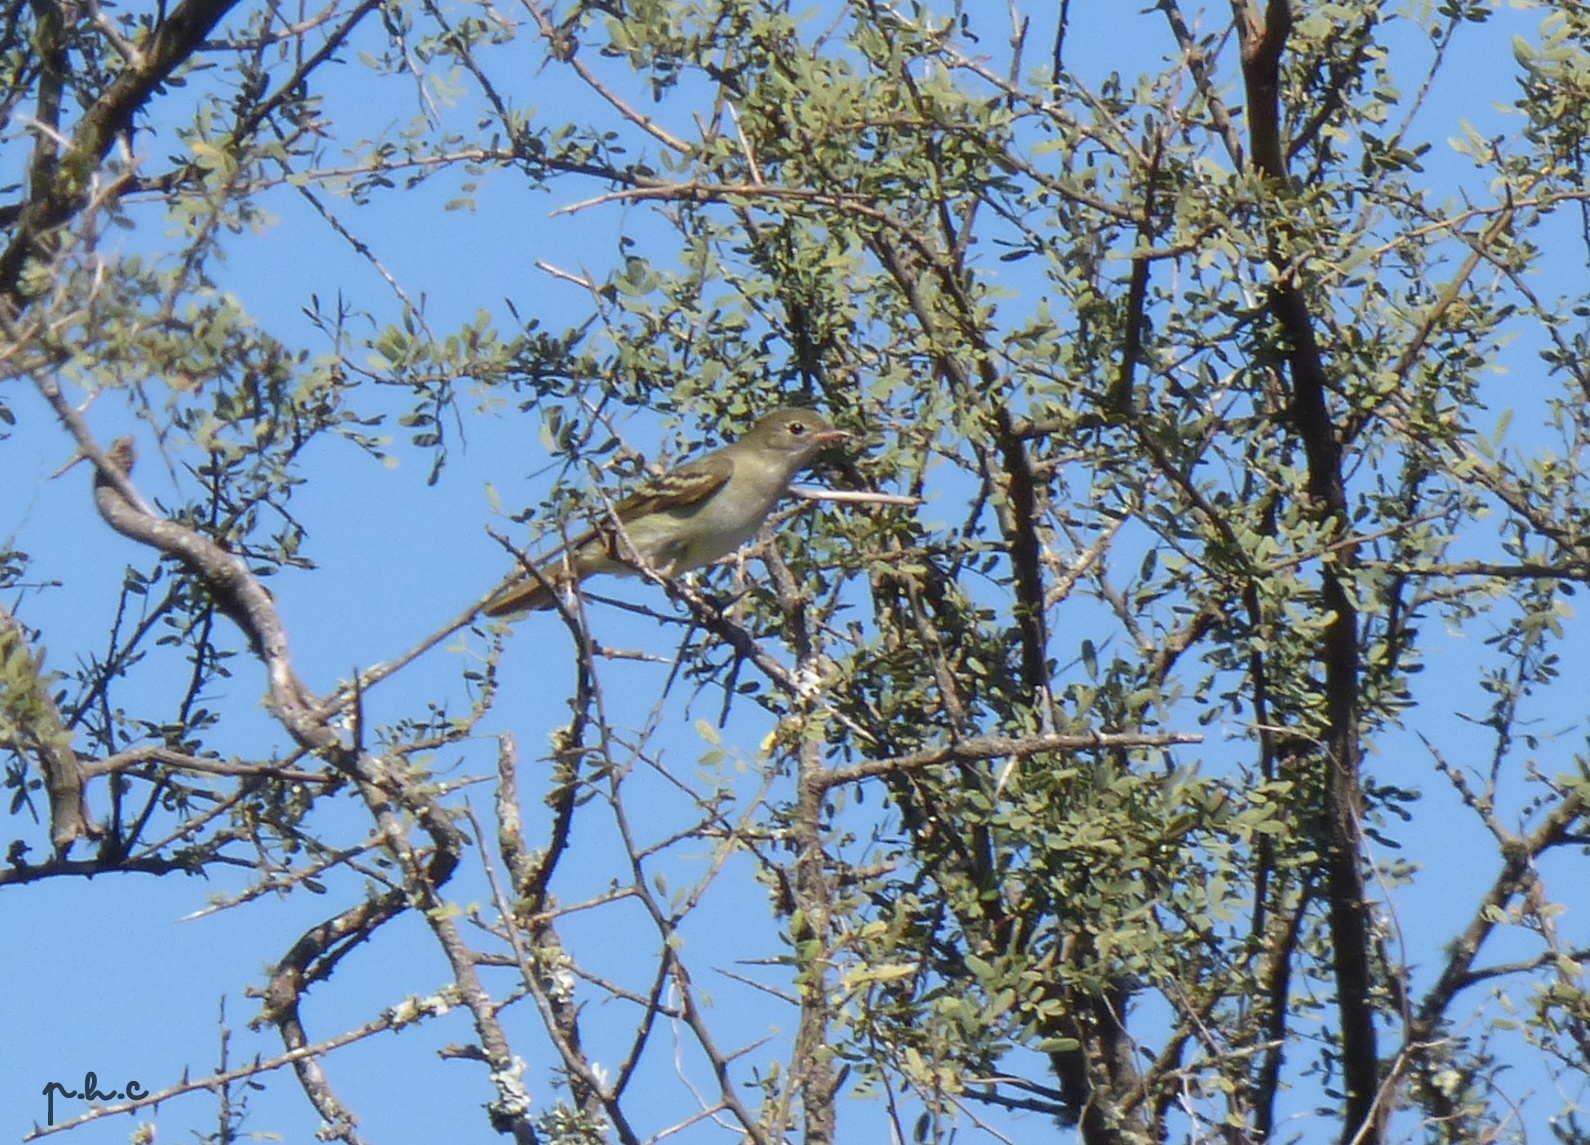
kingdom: Animalia
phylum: Chordata
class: Aves
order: Passeriformes
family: Tyrannidae
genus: Elaenia
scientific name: Elaenia albiceps
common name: White-crested elaenia
